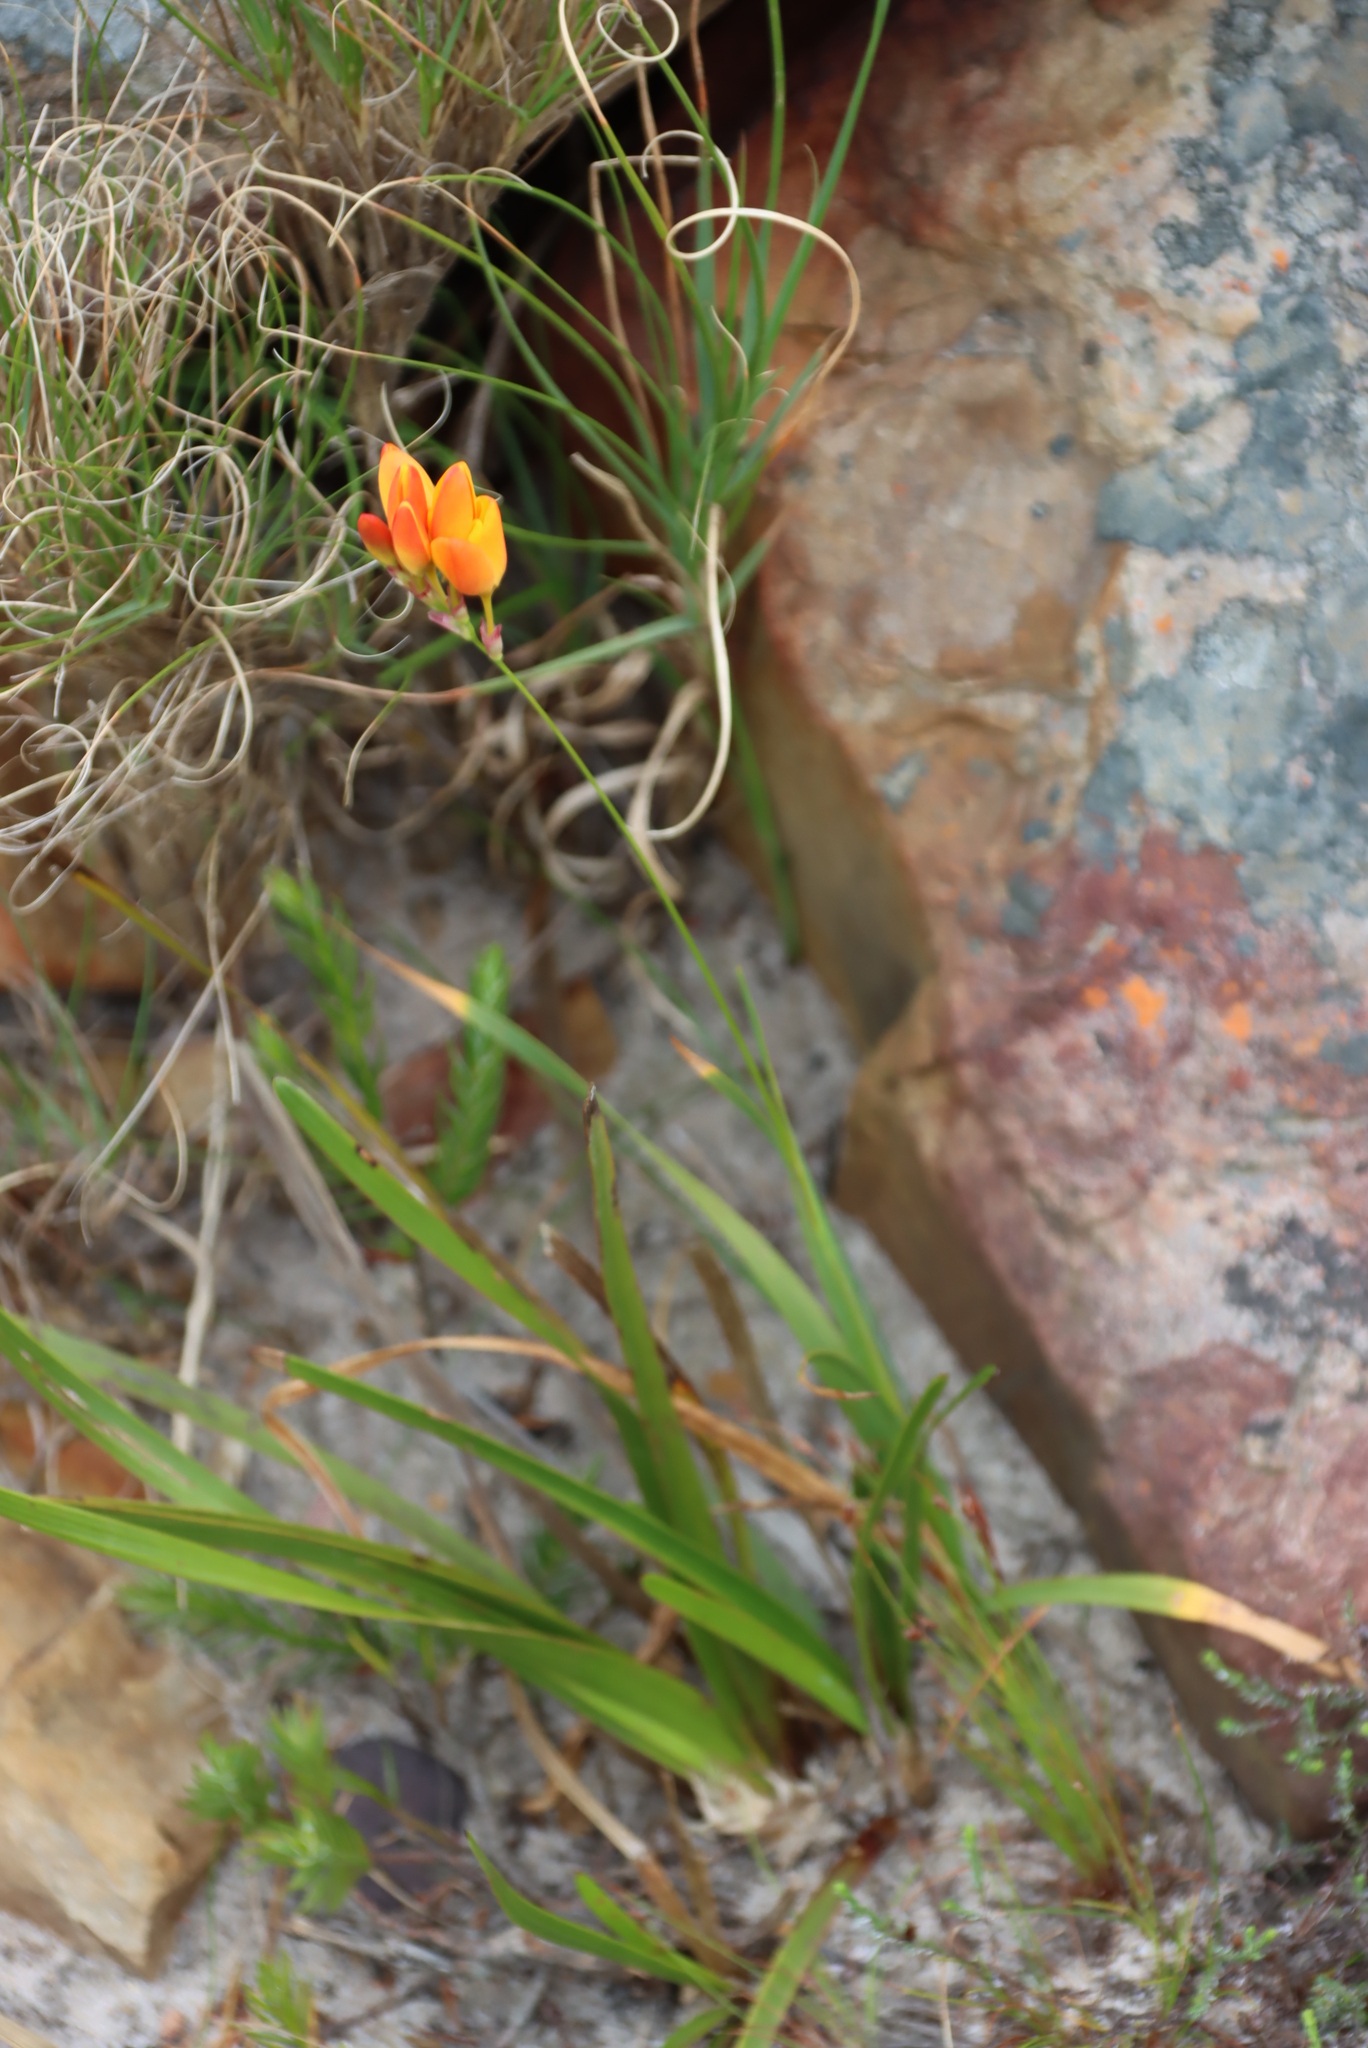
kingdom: Plantae
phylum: Tracheophyta
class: Liliopsida
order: Asparagales
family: Iridaceae
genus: Ixia
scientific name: Ixia dubia
